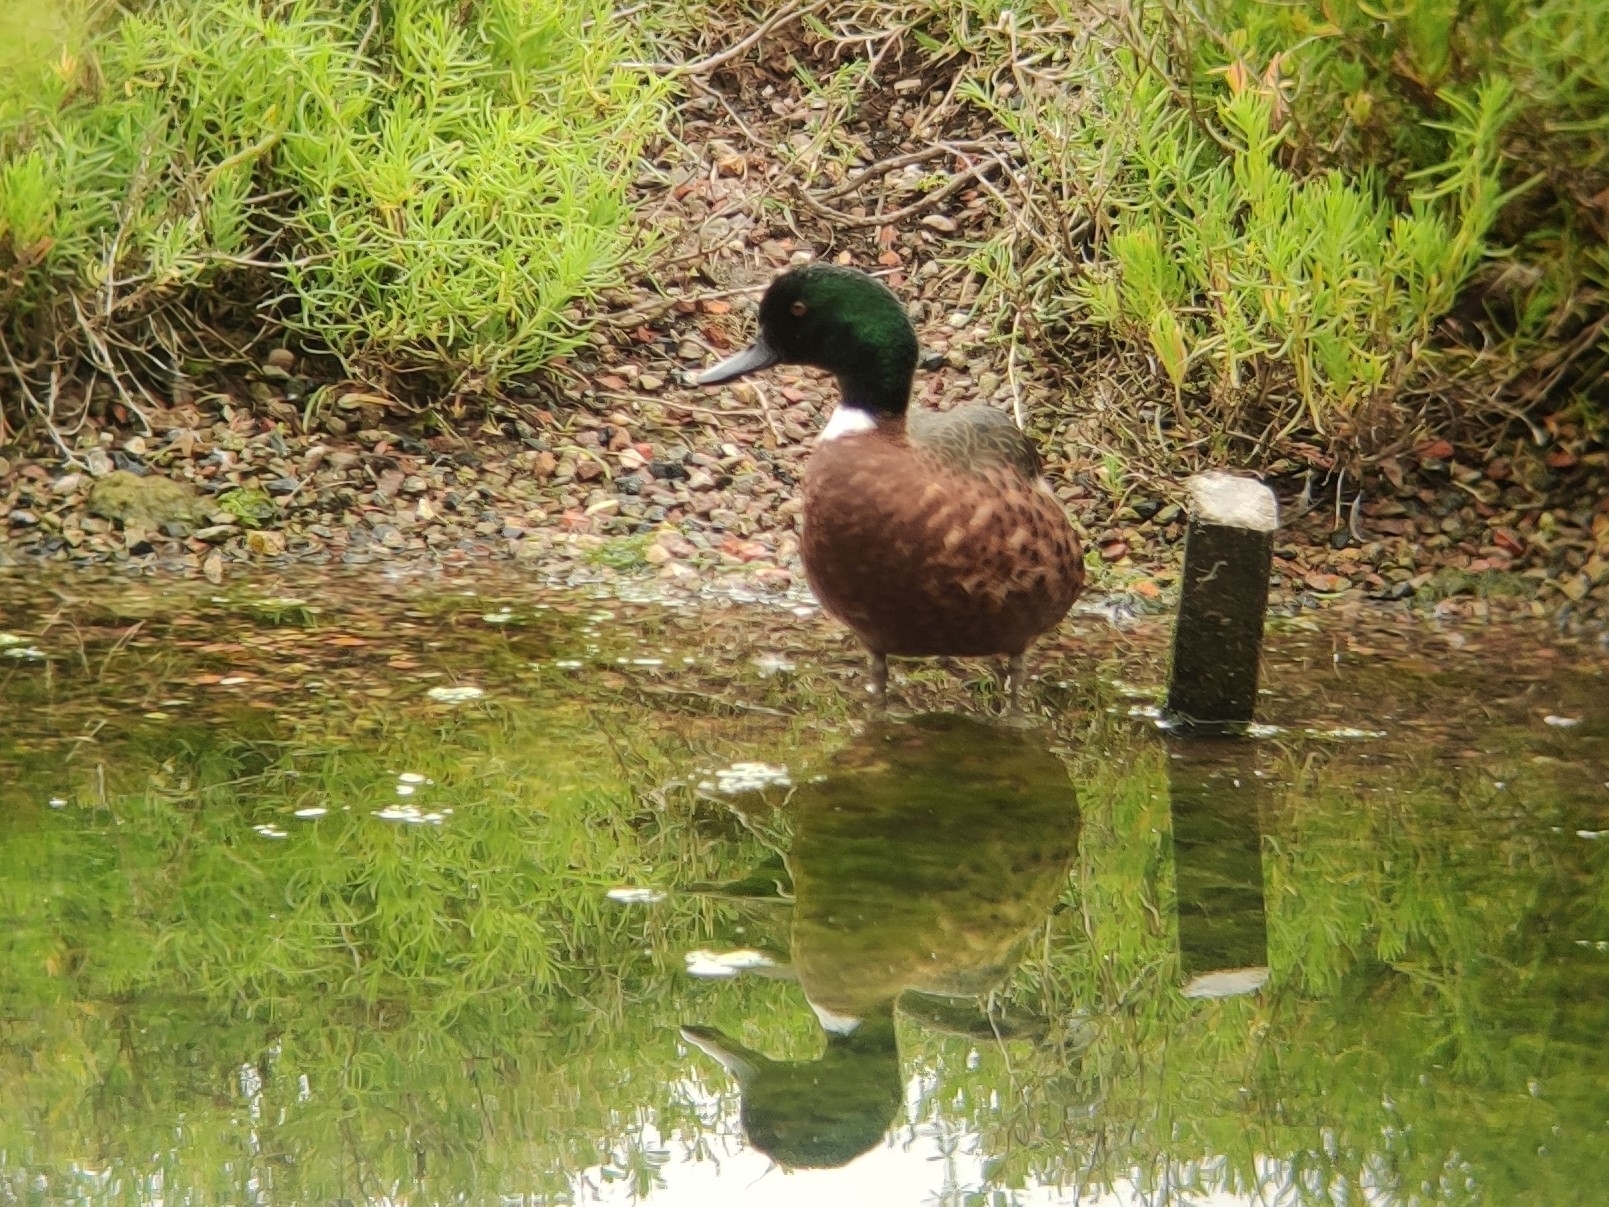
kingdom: Animalia
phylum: Chordata
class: Aves
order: Anseriformes
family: Anatidae
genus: Anas
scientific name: Anas castanea
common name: Chestnut teal
